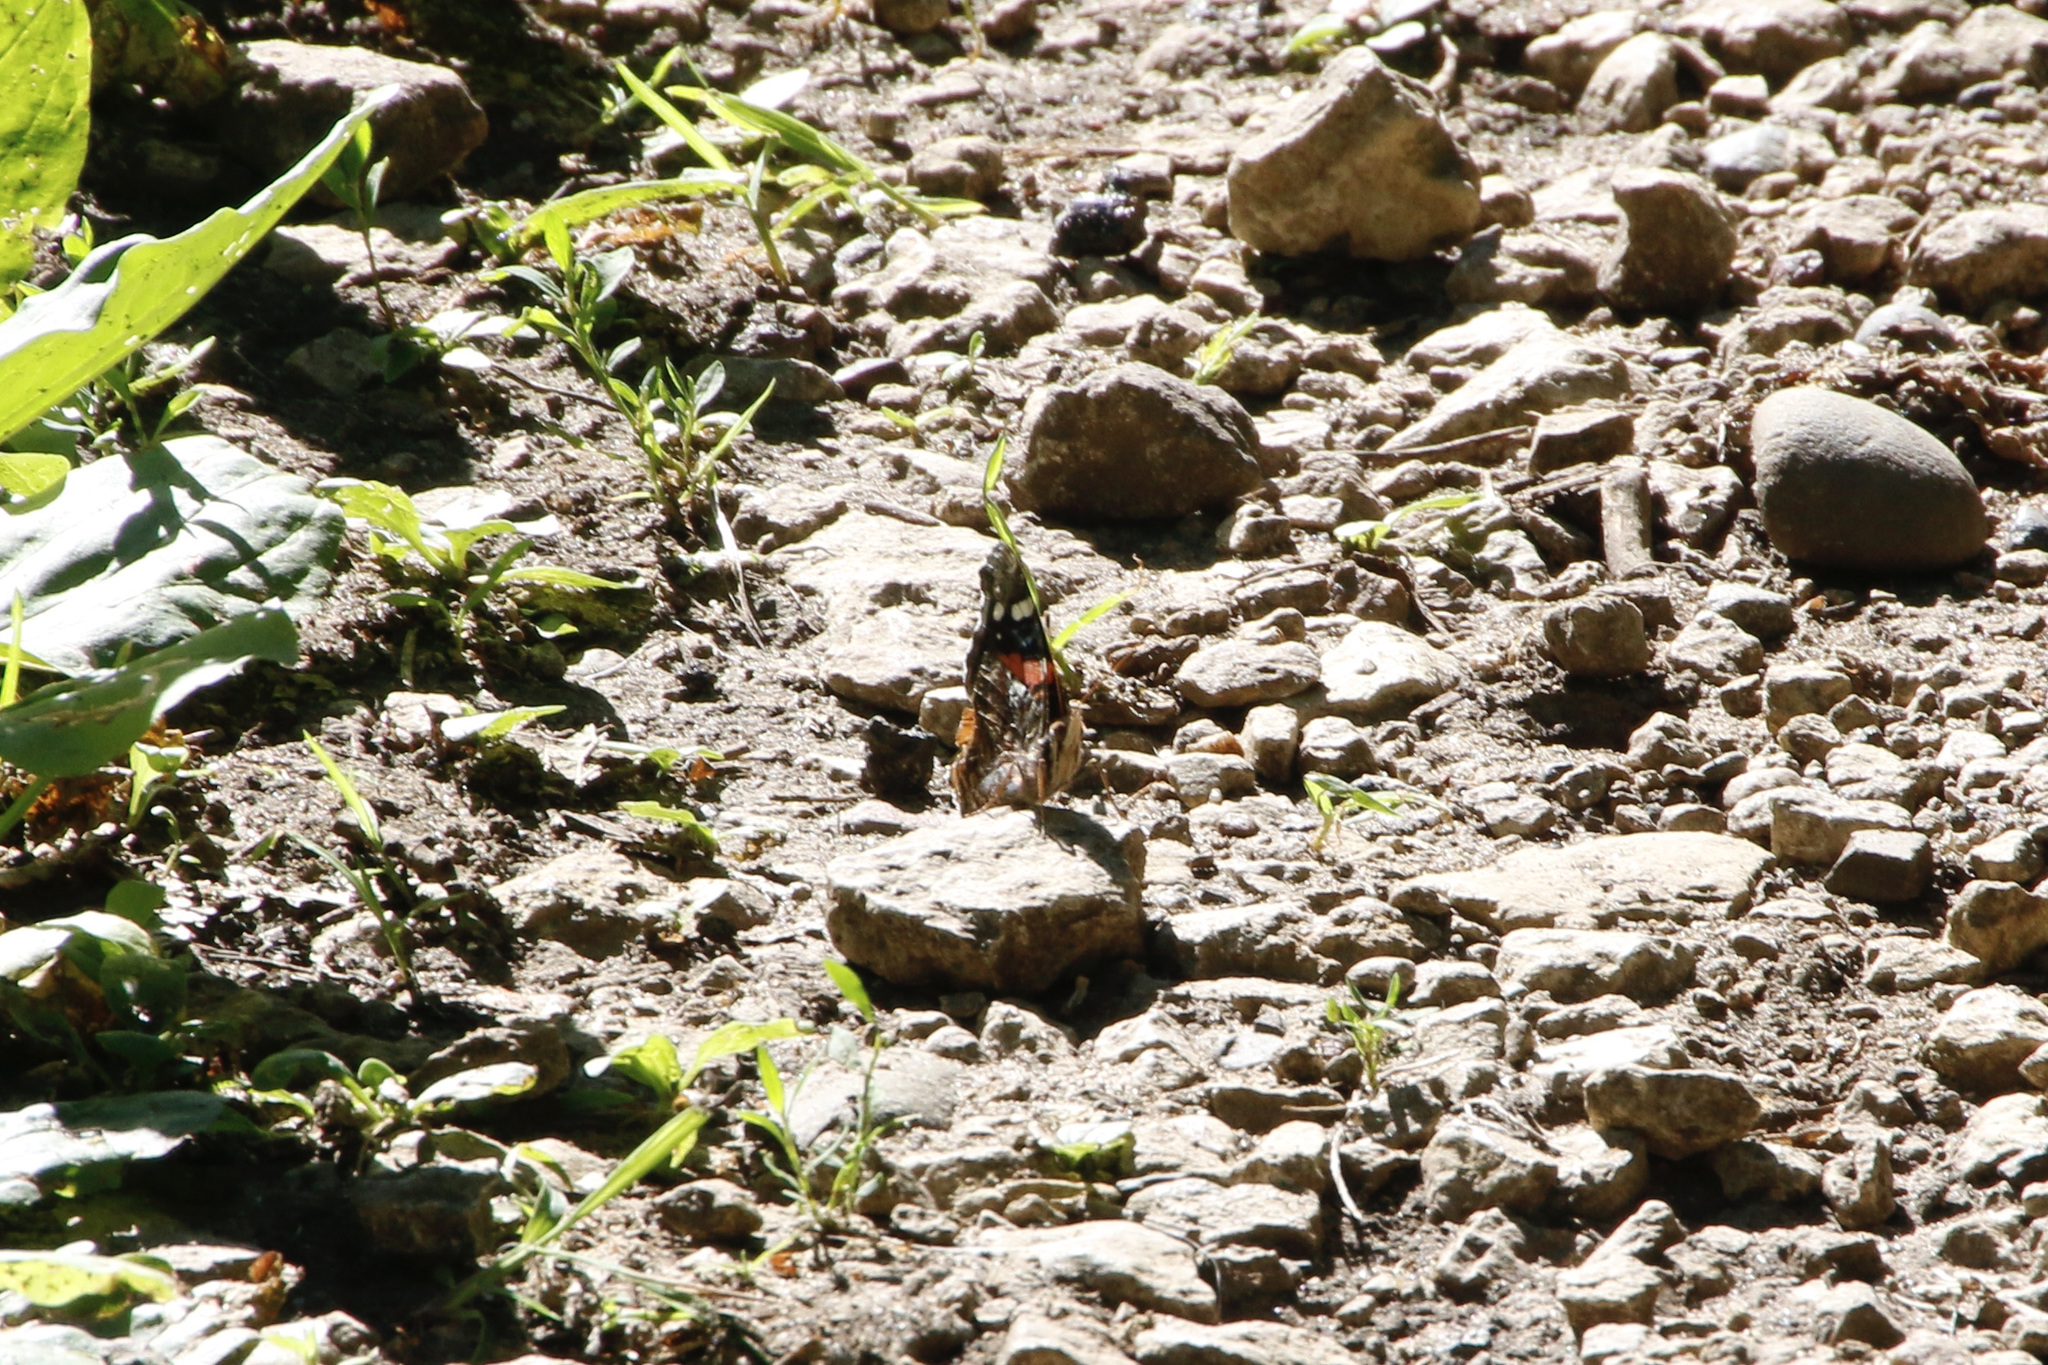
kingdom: Animalia
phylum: Arthropoda
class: Insecta
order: Lepidoptera
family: Nymphalidae
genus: Vanessa
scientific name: Vanessa atalanta
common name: Red admiral
